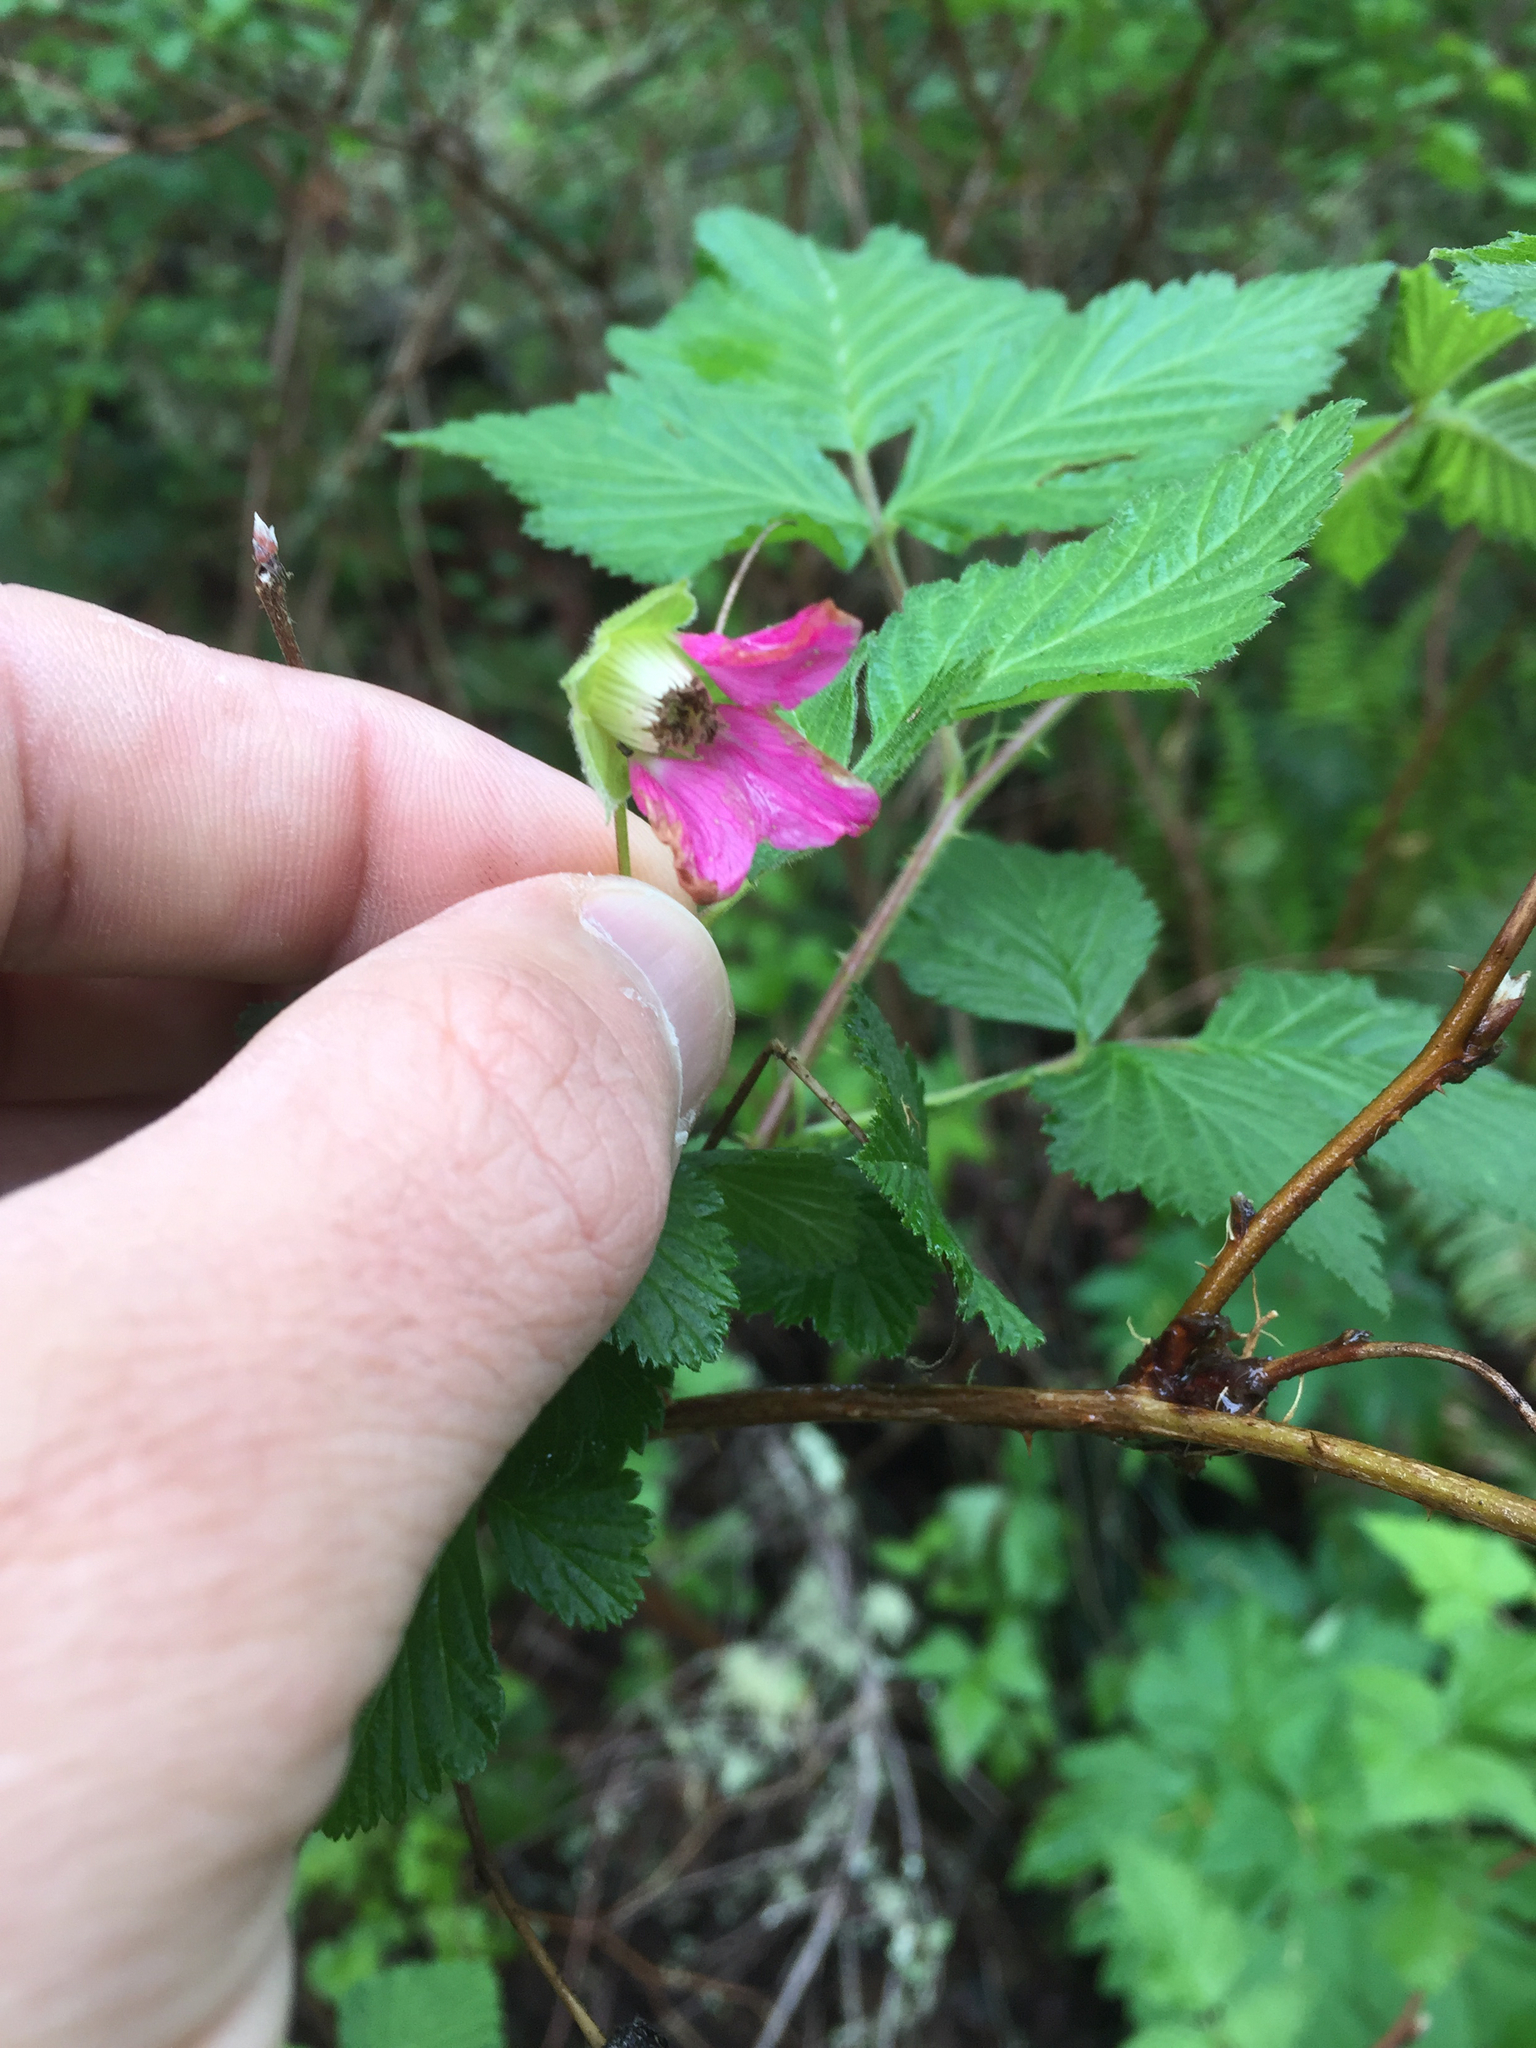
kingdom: Plantae
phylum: Tracheophyta
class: Magnoliopsida
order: Rosales
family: Rosaceae
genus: Rubus
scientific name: Rubus spectabilis
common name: Salmonberry
